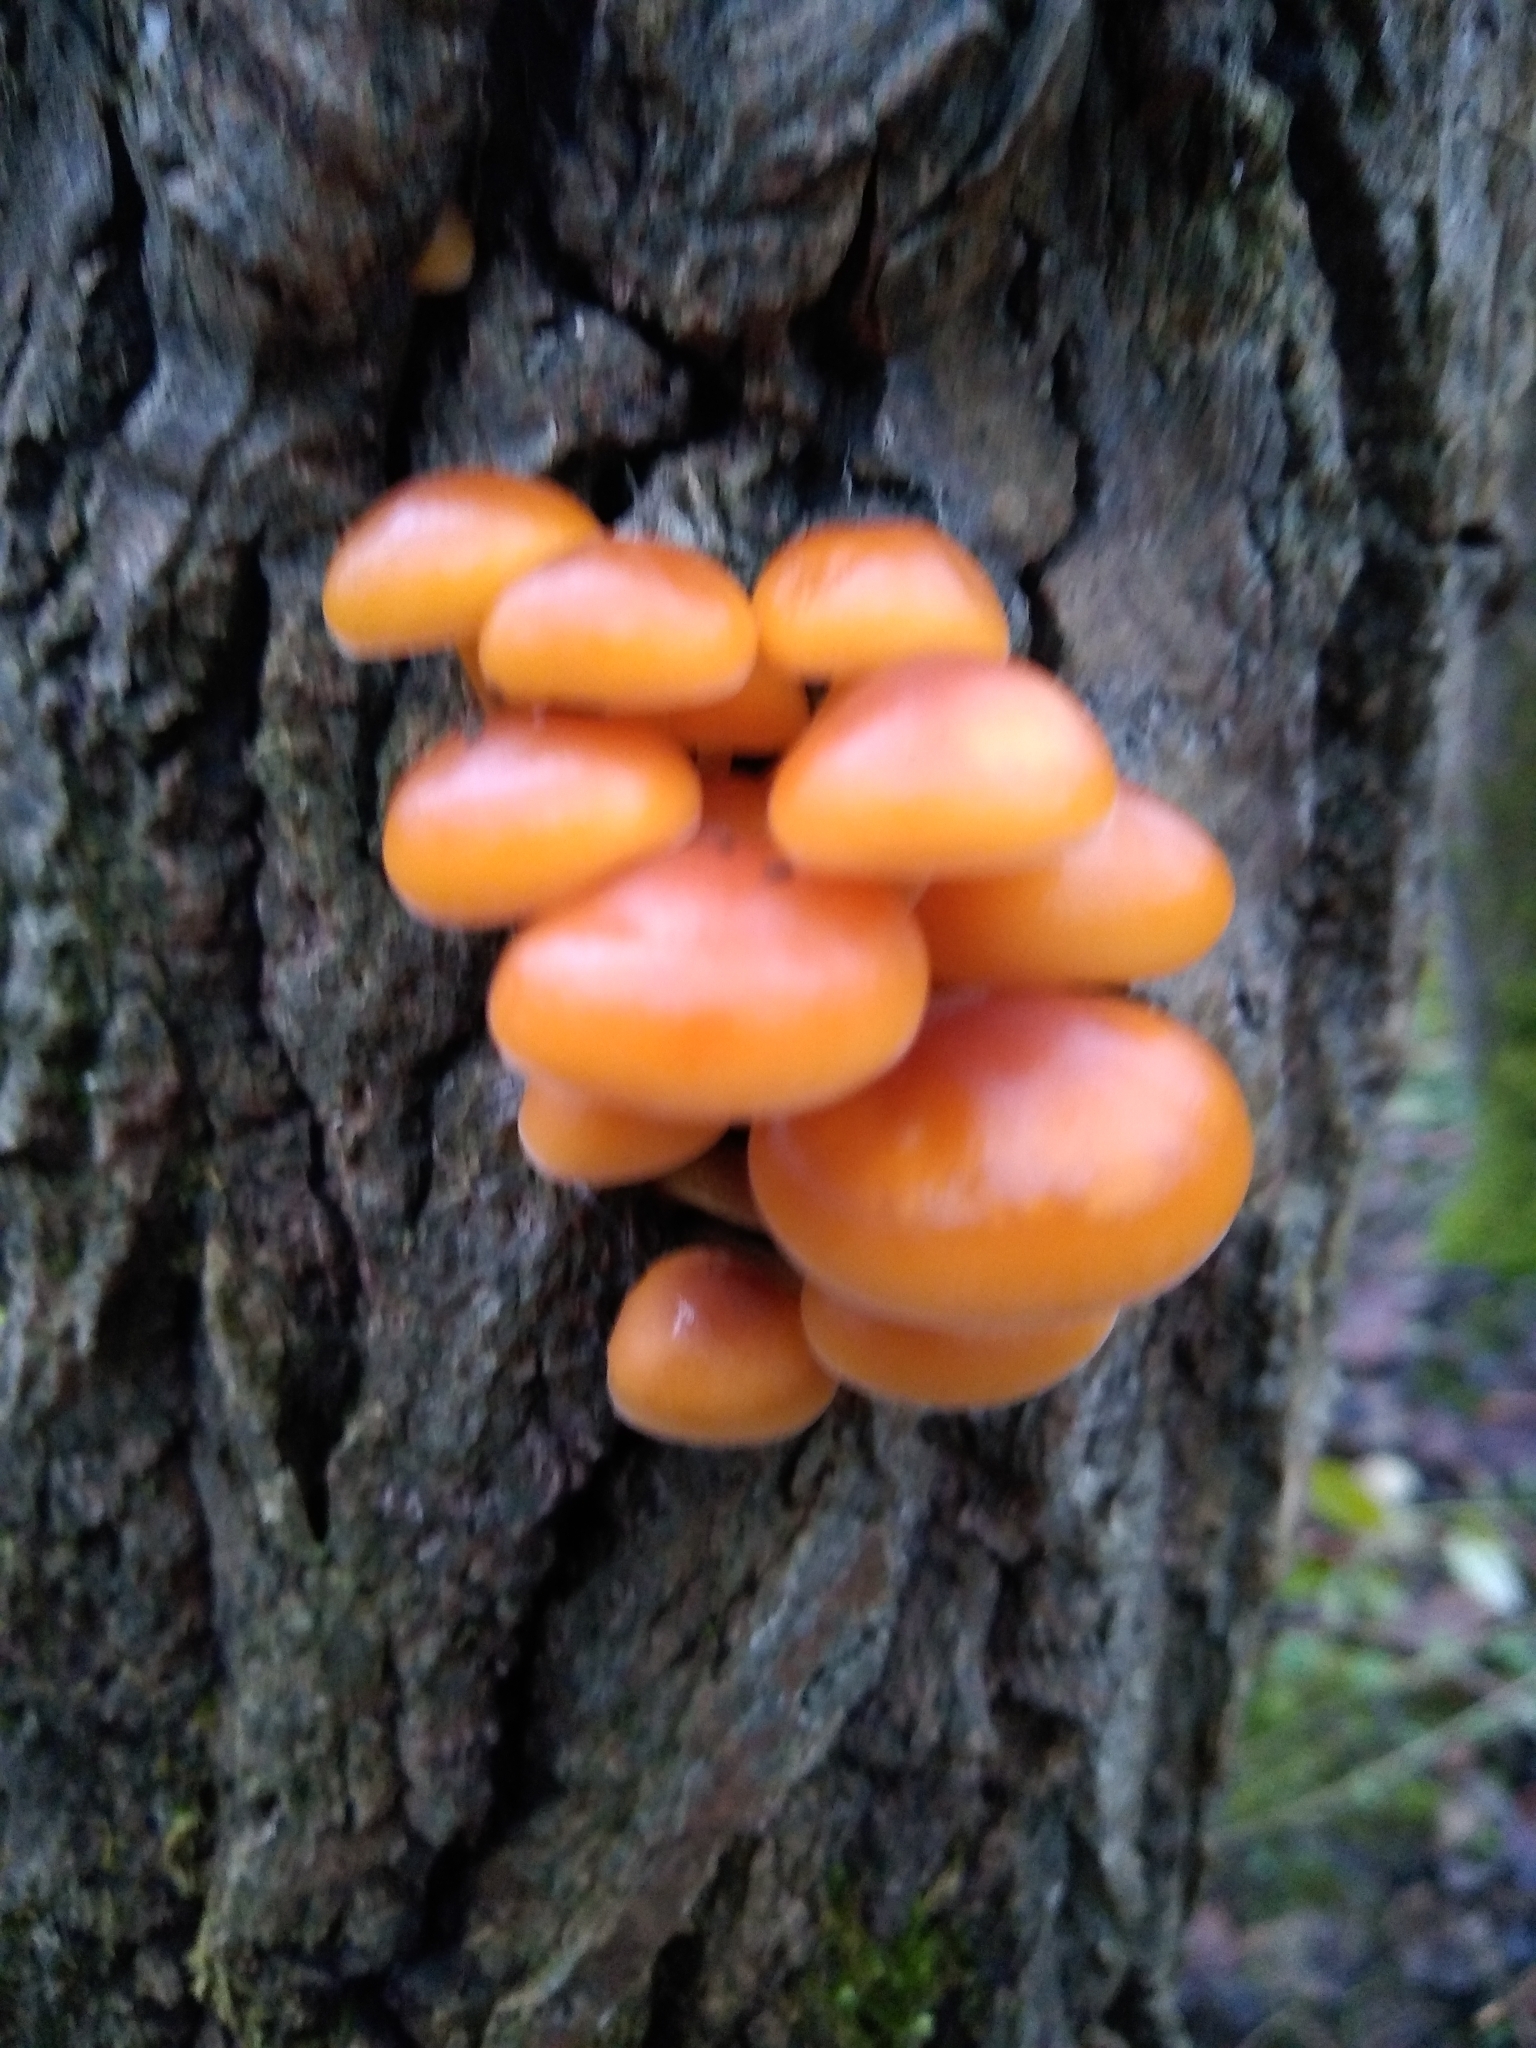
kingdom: Fungi
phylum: Basidiomycota
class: Agaricomycetes
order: Agaricales
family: Physalacriaceae
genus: Flammulina
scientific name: Flammulina
